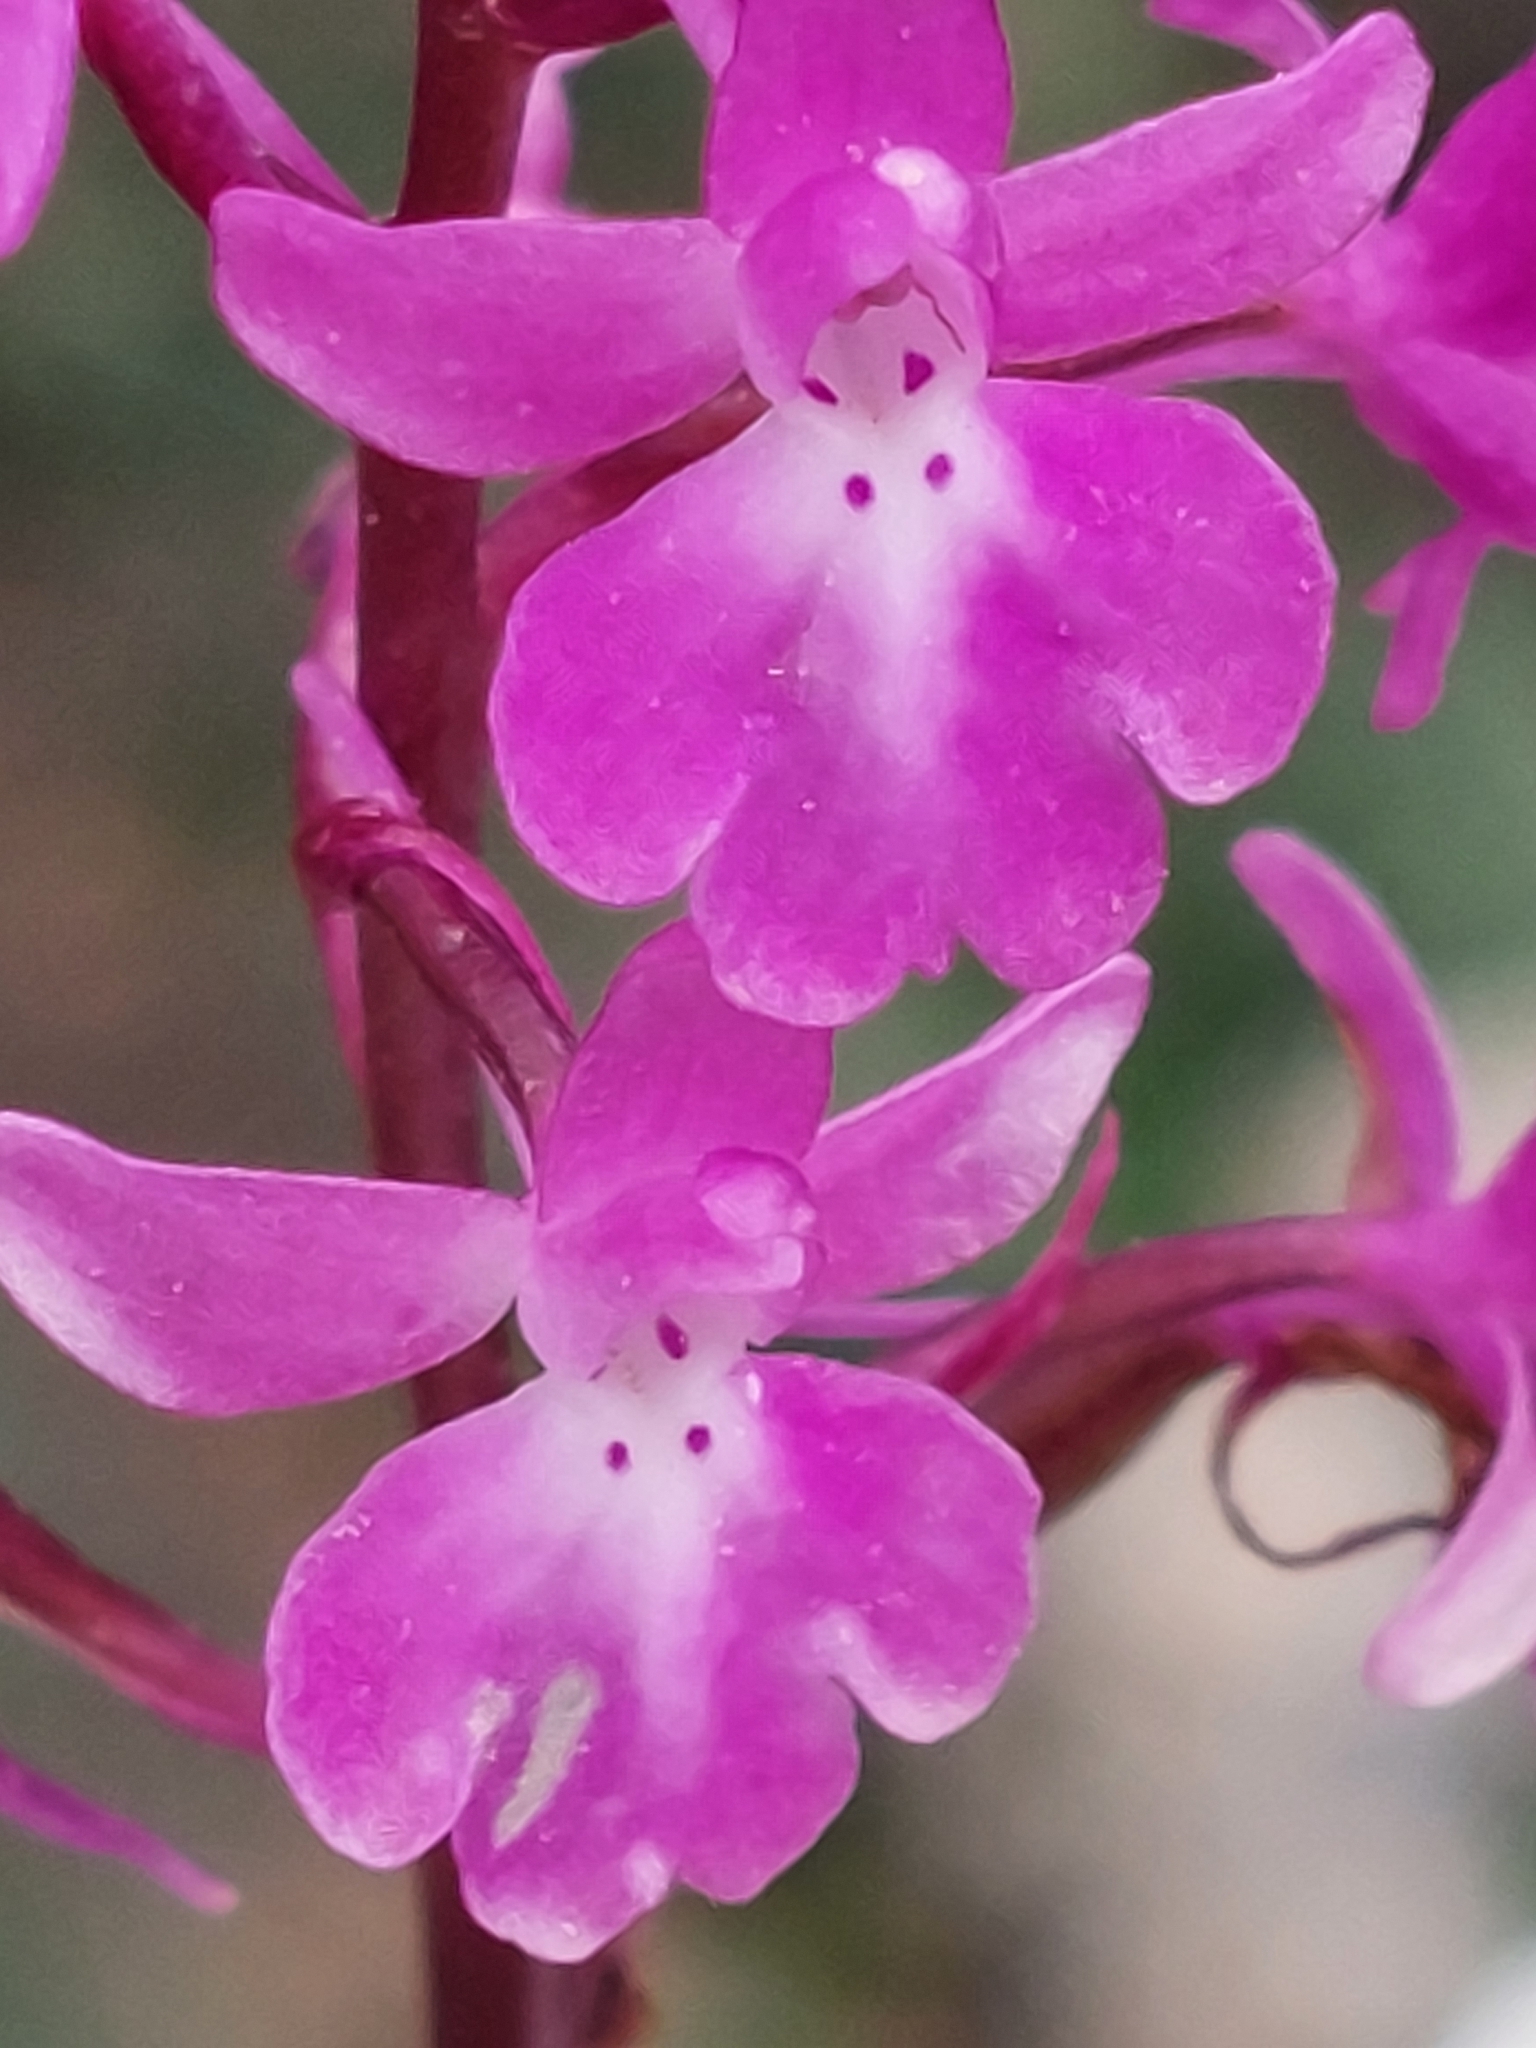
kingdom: Plantae
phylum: Tracheophyta
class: Liliopsida
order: Asparagales
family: Orchidaceae
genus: Orchis
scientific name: Orchis quadripunctata
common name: Four-spotted orchid
